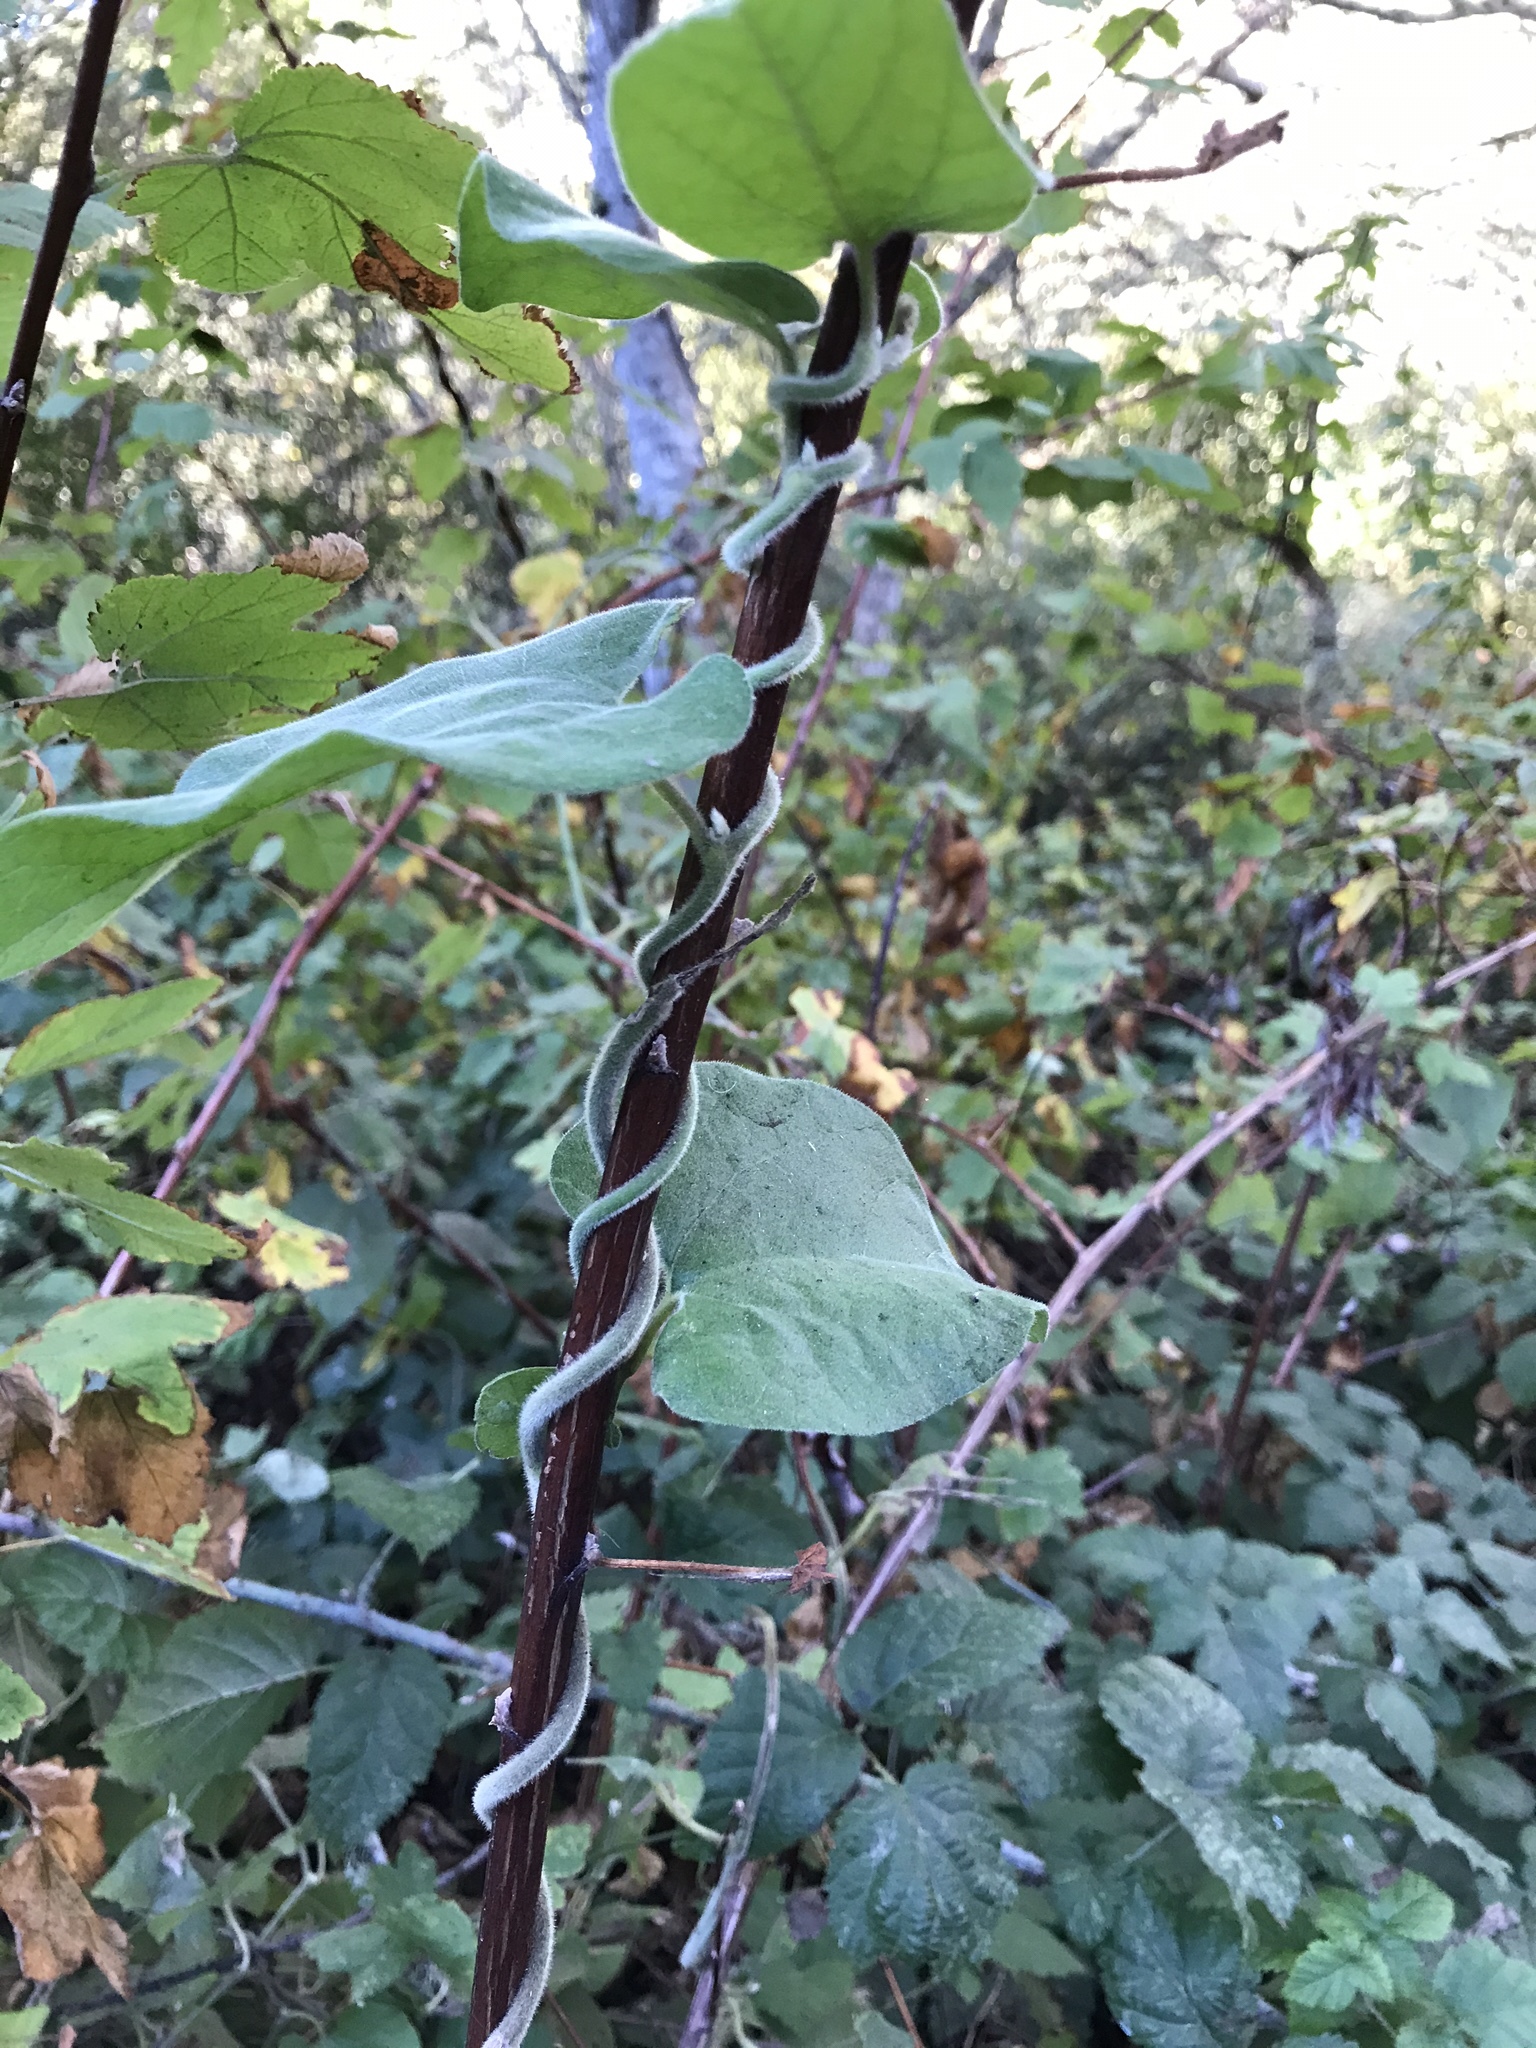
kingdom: Plantae
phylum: Tracheophyta
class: Magnoliopsida
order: Piperales
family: Aristolochiaceae
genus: Isotrema
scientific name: Isotrema californicum
